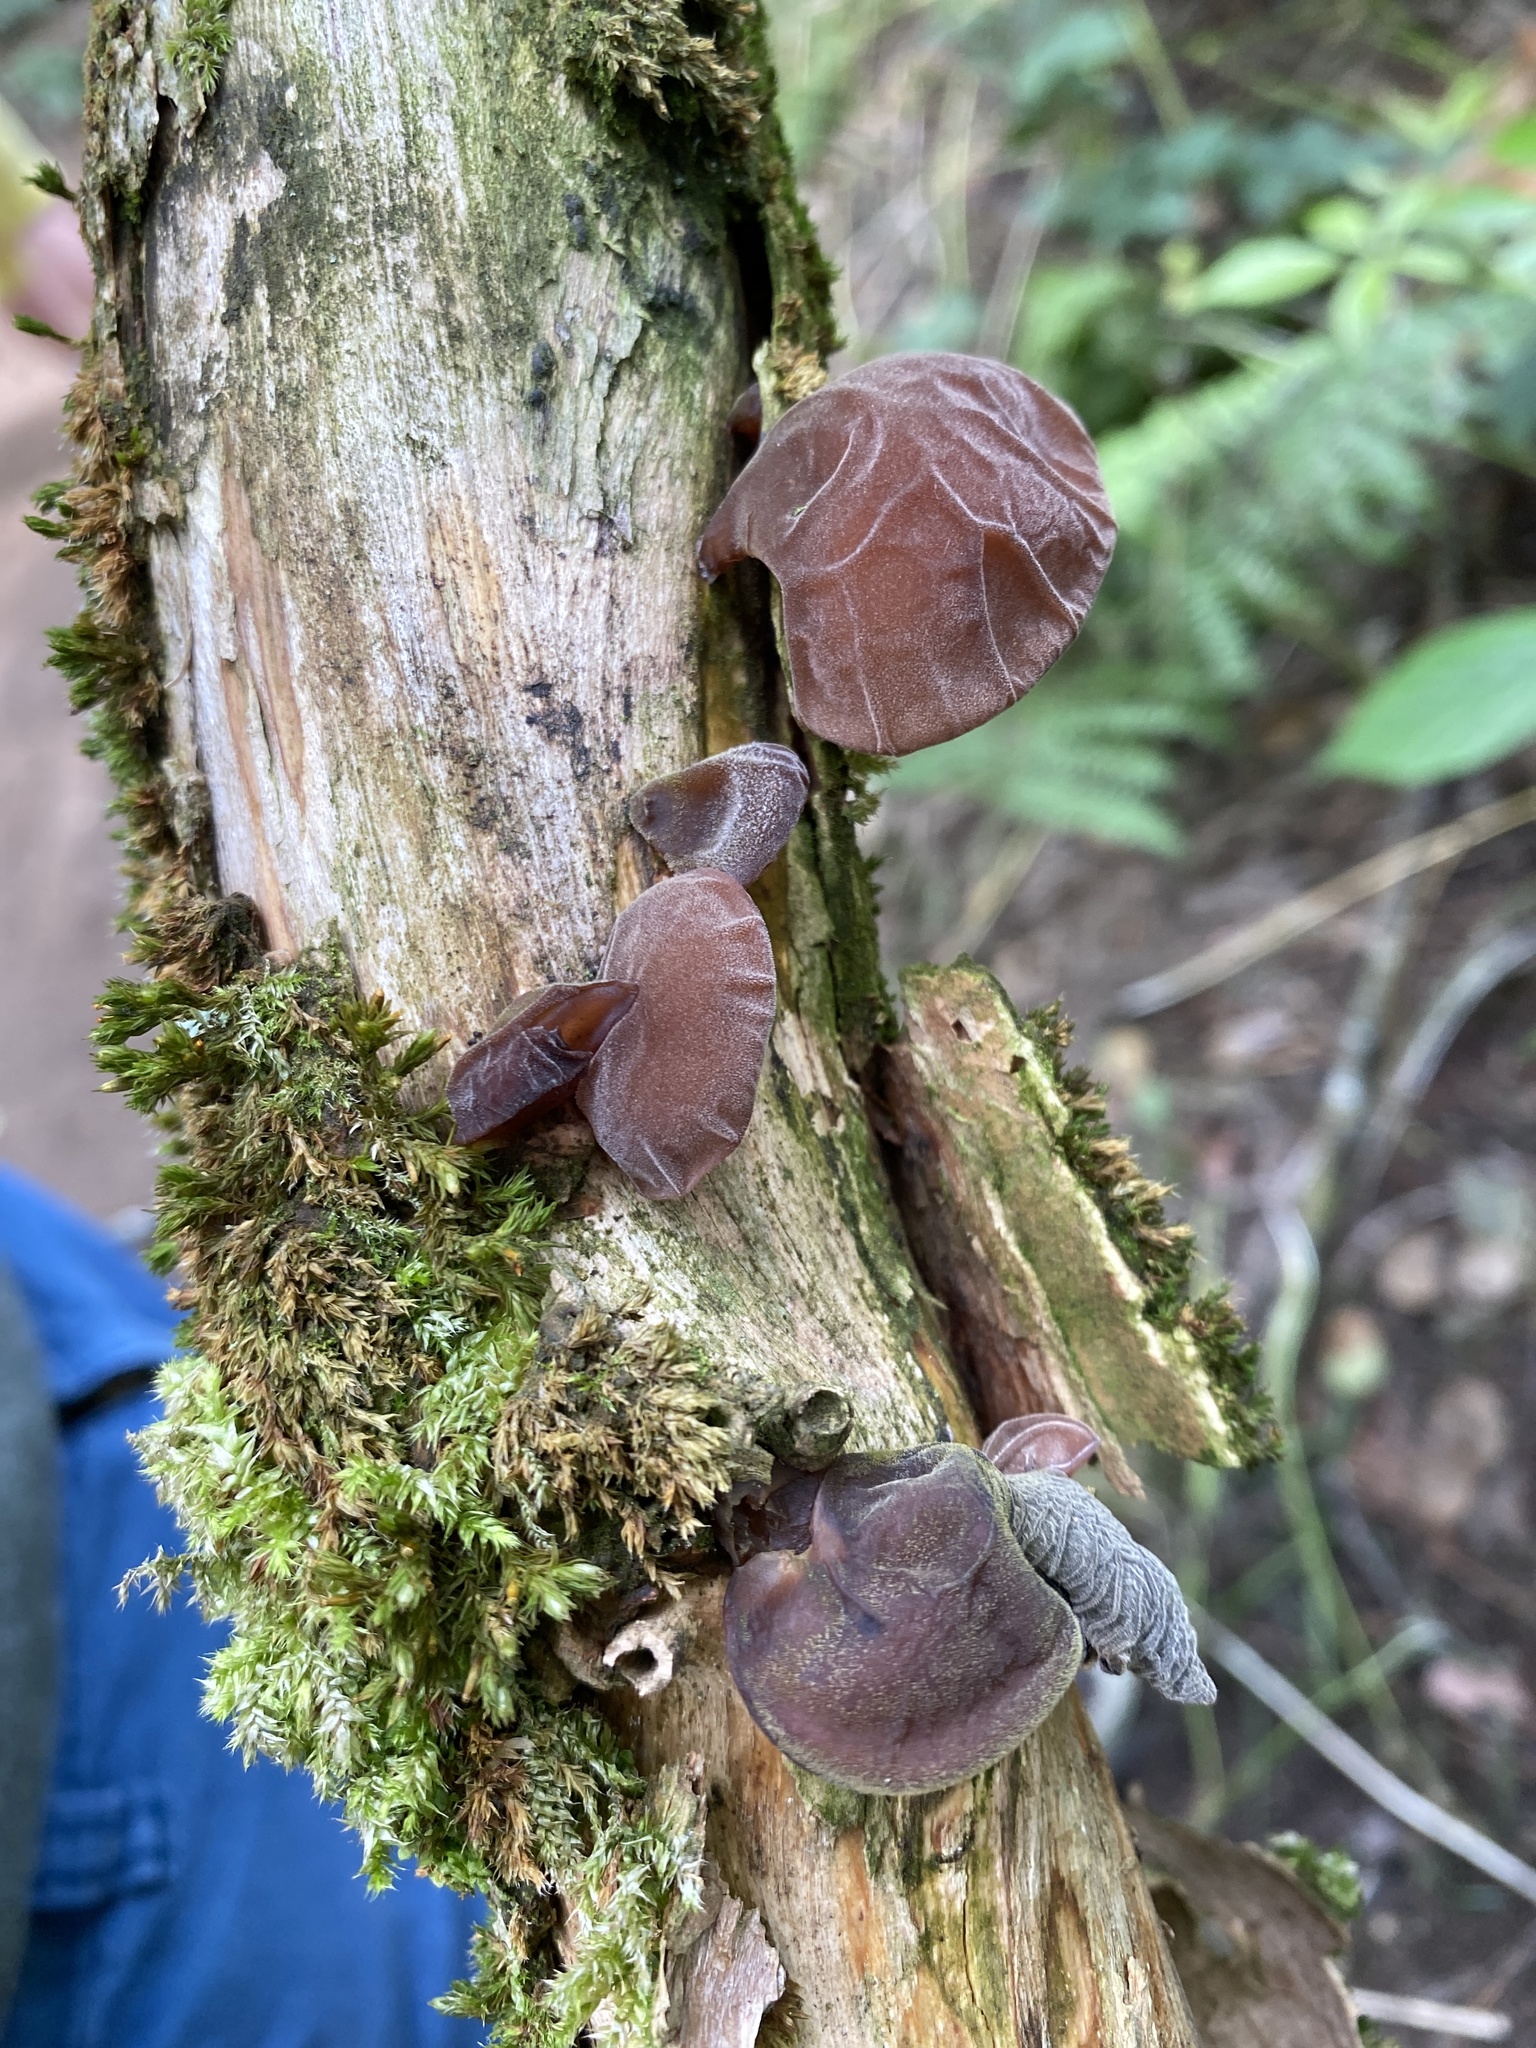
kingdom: Fungi
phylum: Basidiomycota
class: Agaricomycetes
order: Auriculariales
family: Auriculariaceae
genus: Auricularia
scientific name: Auricularia auricula-judae
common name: Jelly ear
